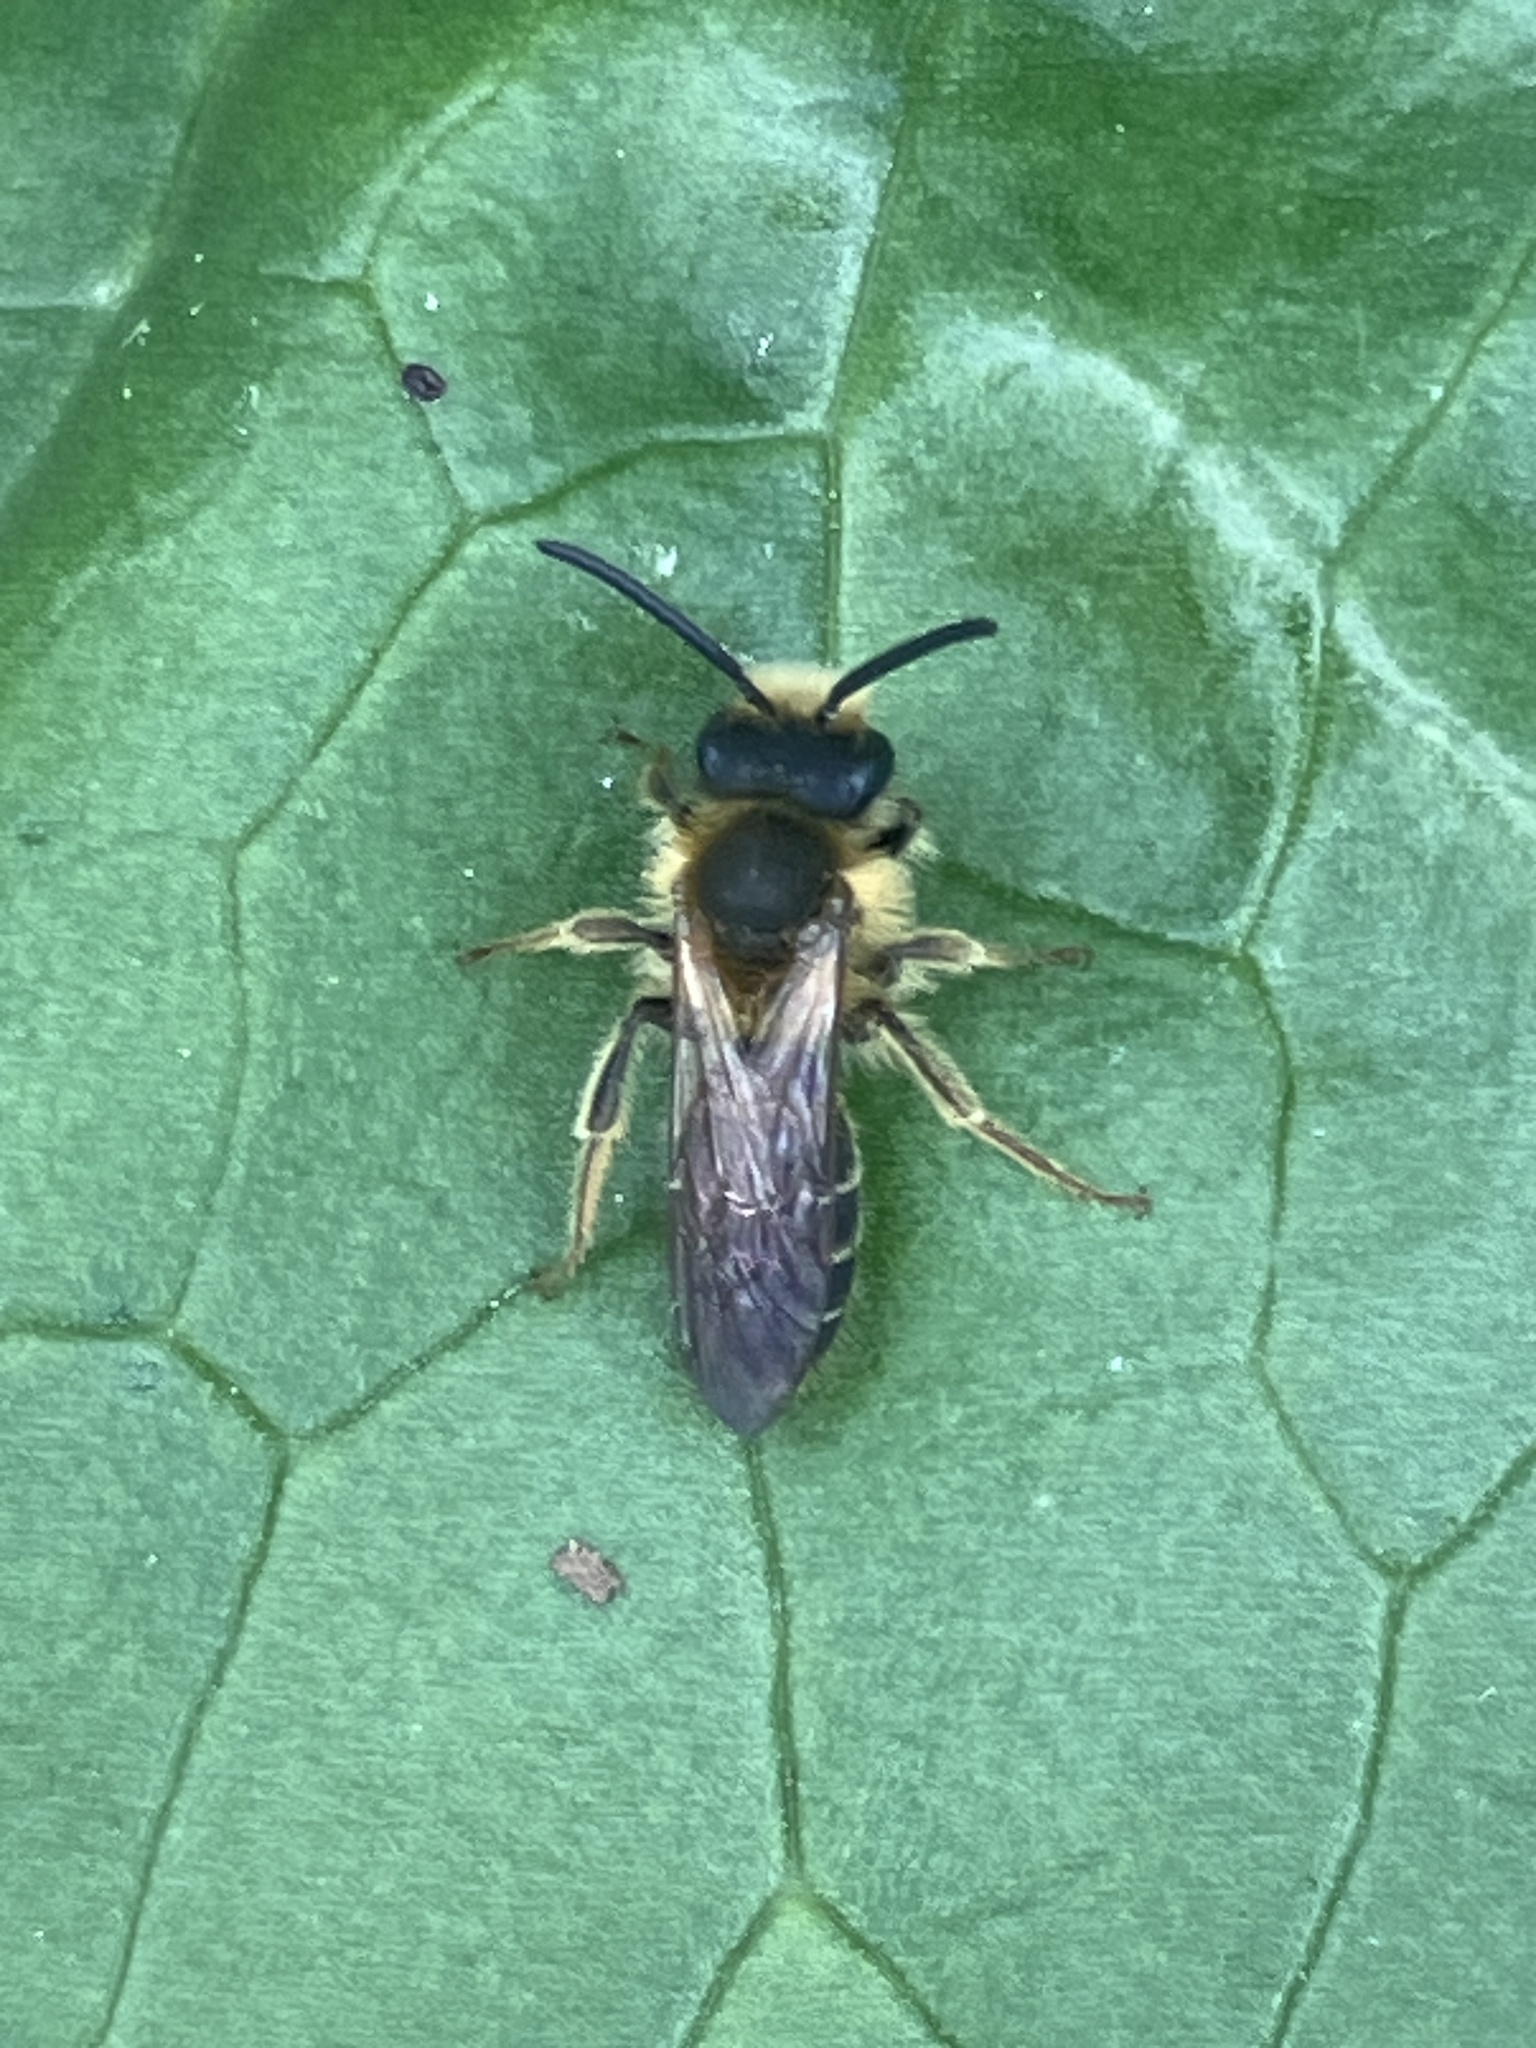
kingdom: Animalia
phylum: Arthropoda
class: Insecta
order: Hymenoptera
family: Andrenidae
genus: Andrena
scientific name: Andrena dorsata
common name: Short-fringed mining bee
